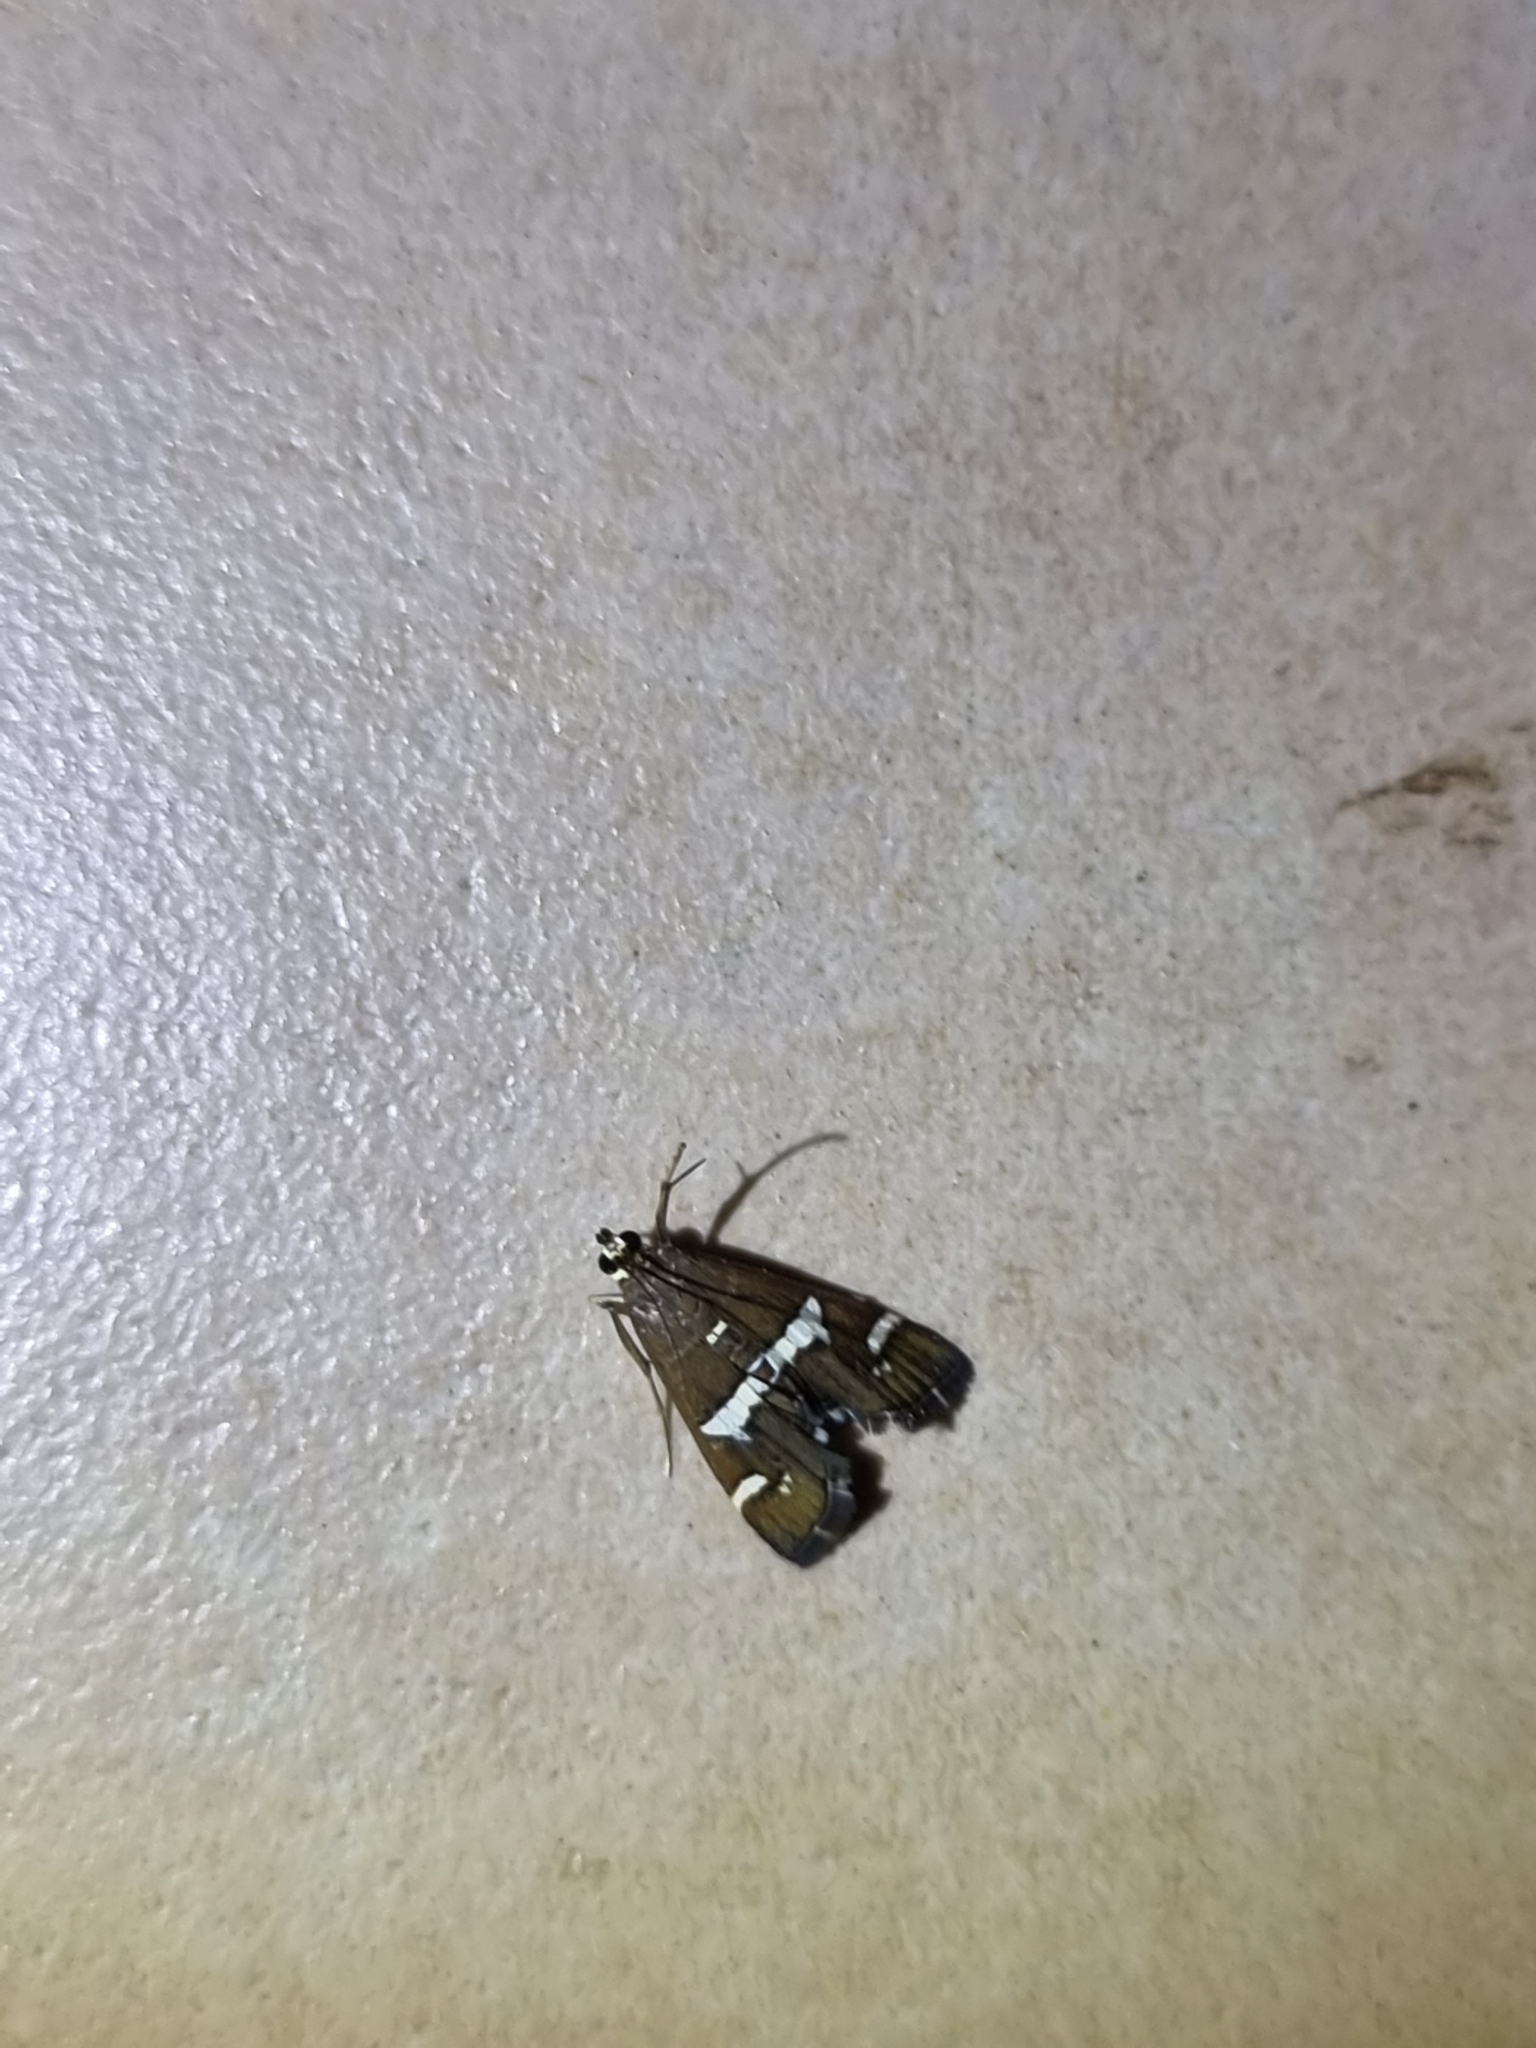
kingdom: Animalia
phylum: Arthropoda
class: Insecta
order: Lepidoptera
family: Crambidae
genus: Spoladea
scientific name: Spoladea recurvalis
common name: Beet webworm moth
